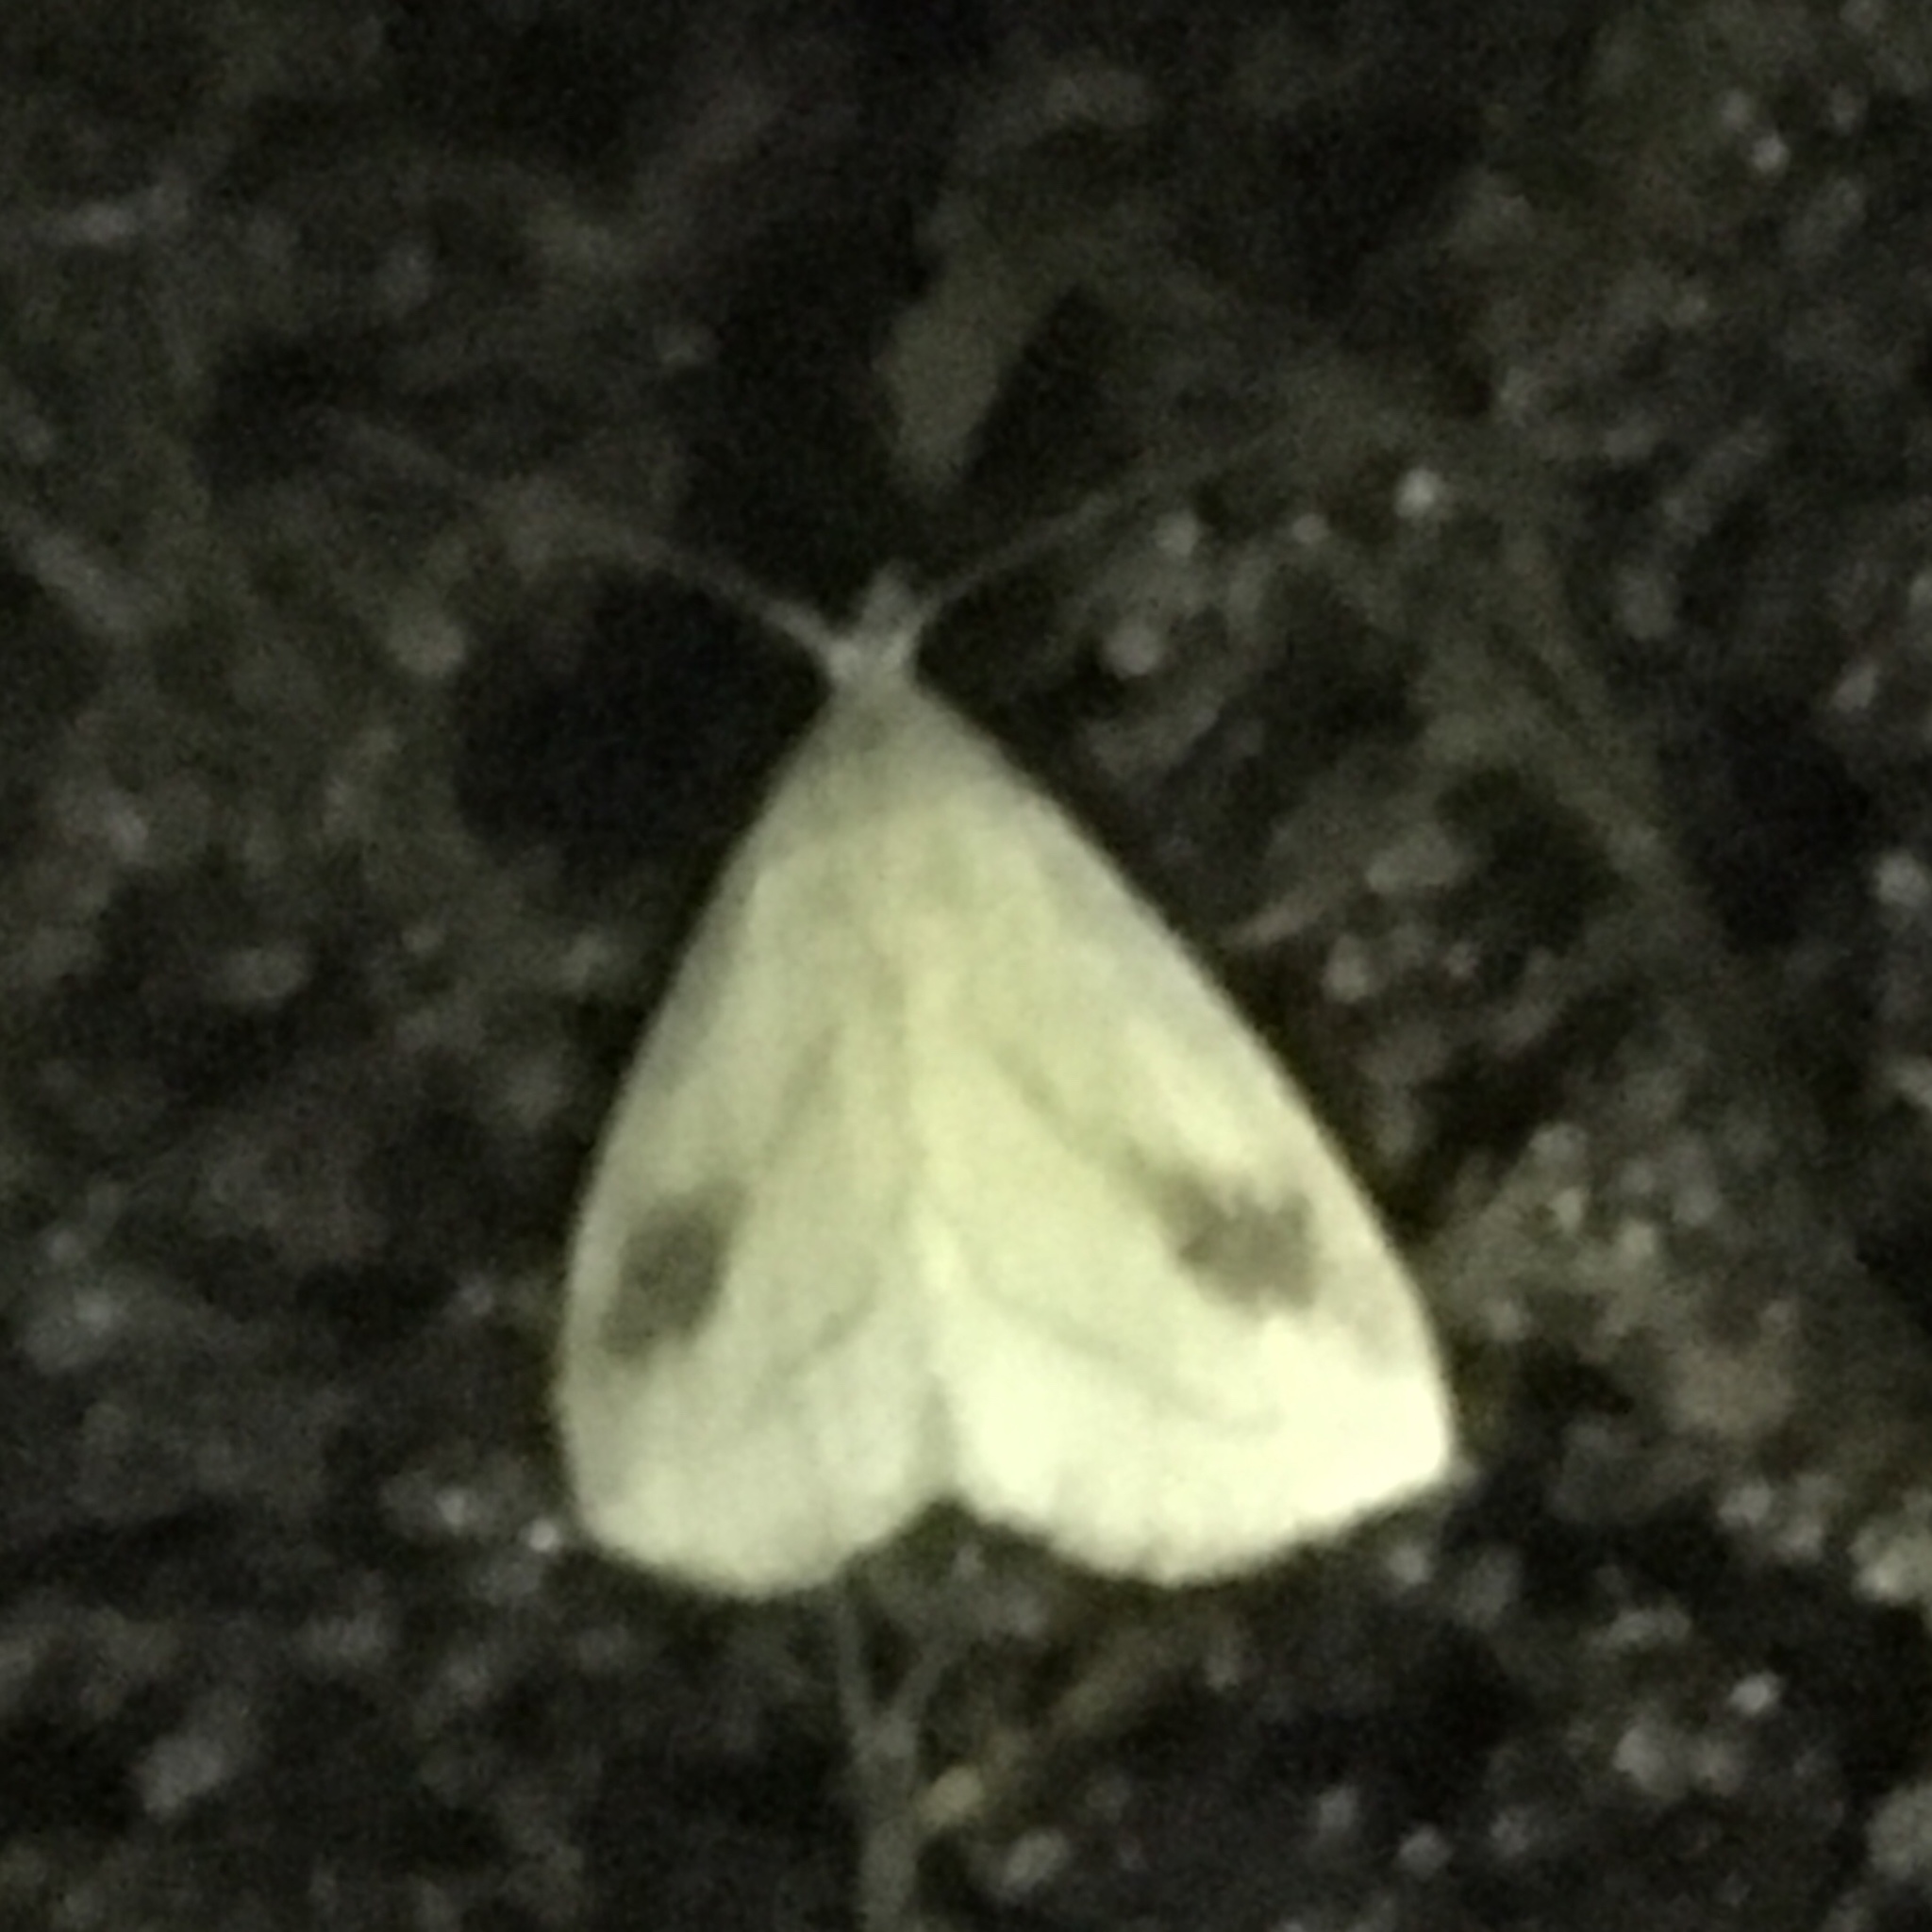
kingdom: Animalia
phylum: Arthropoda
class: Insecta
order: Lepidoptera
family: Erebidae
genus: Rivula
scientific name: Rivula propinqualis
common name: Spotted grass moth
